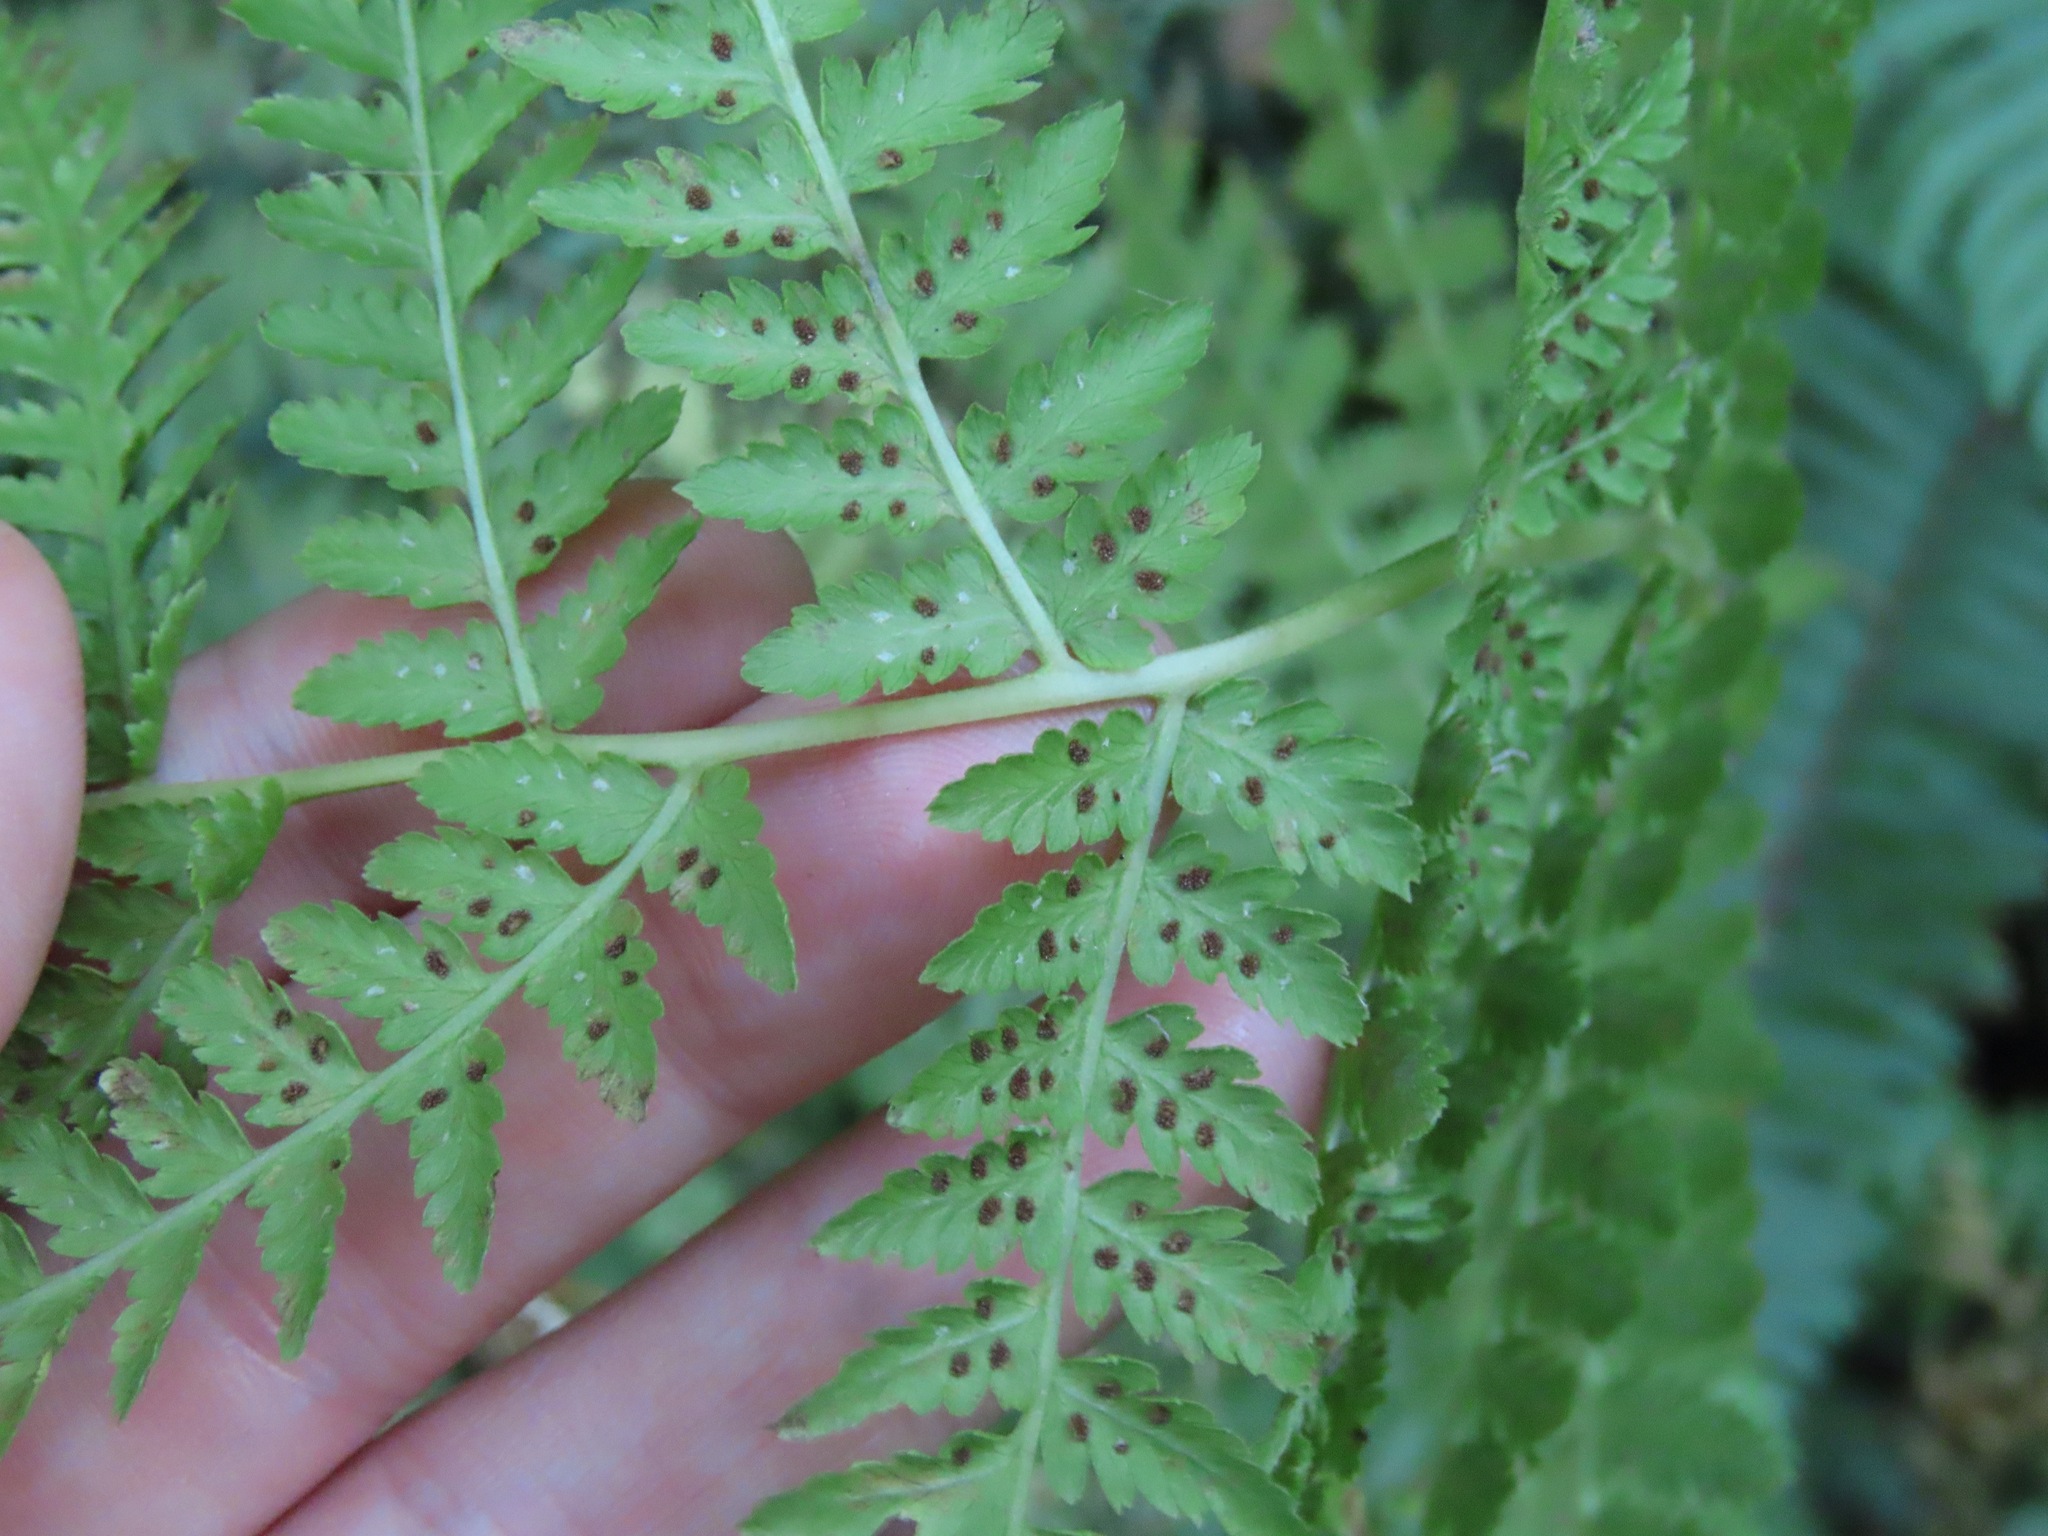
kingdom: Plantae
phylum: Tracheophyta
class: Polypodiopsida
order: Polypodiales
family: Athyriaceae
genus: Athyrium
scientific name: Athyrium filix-femina
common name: Lady fern
